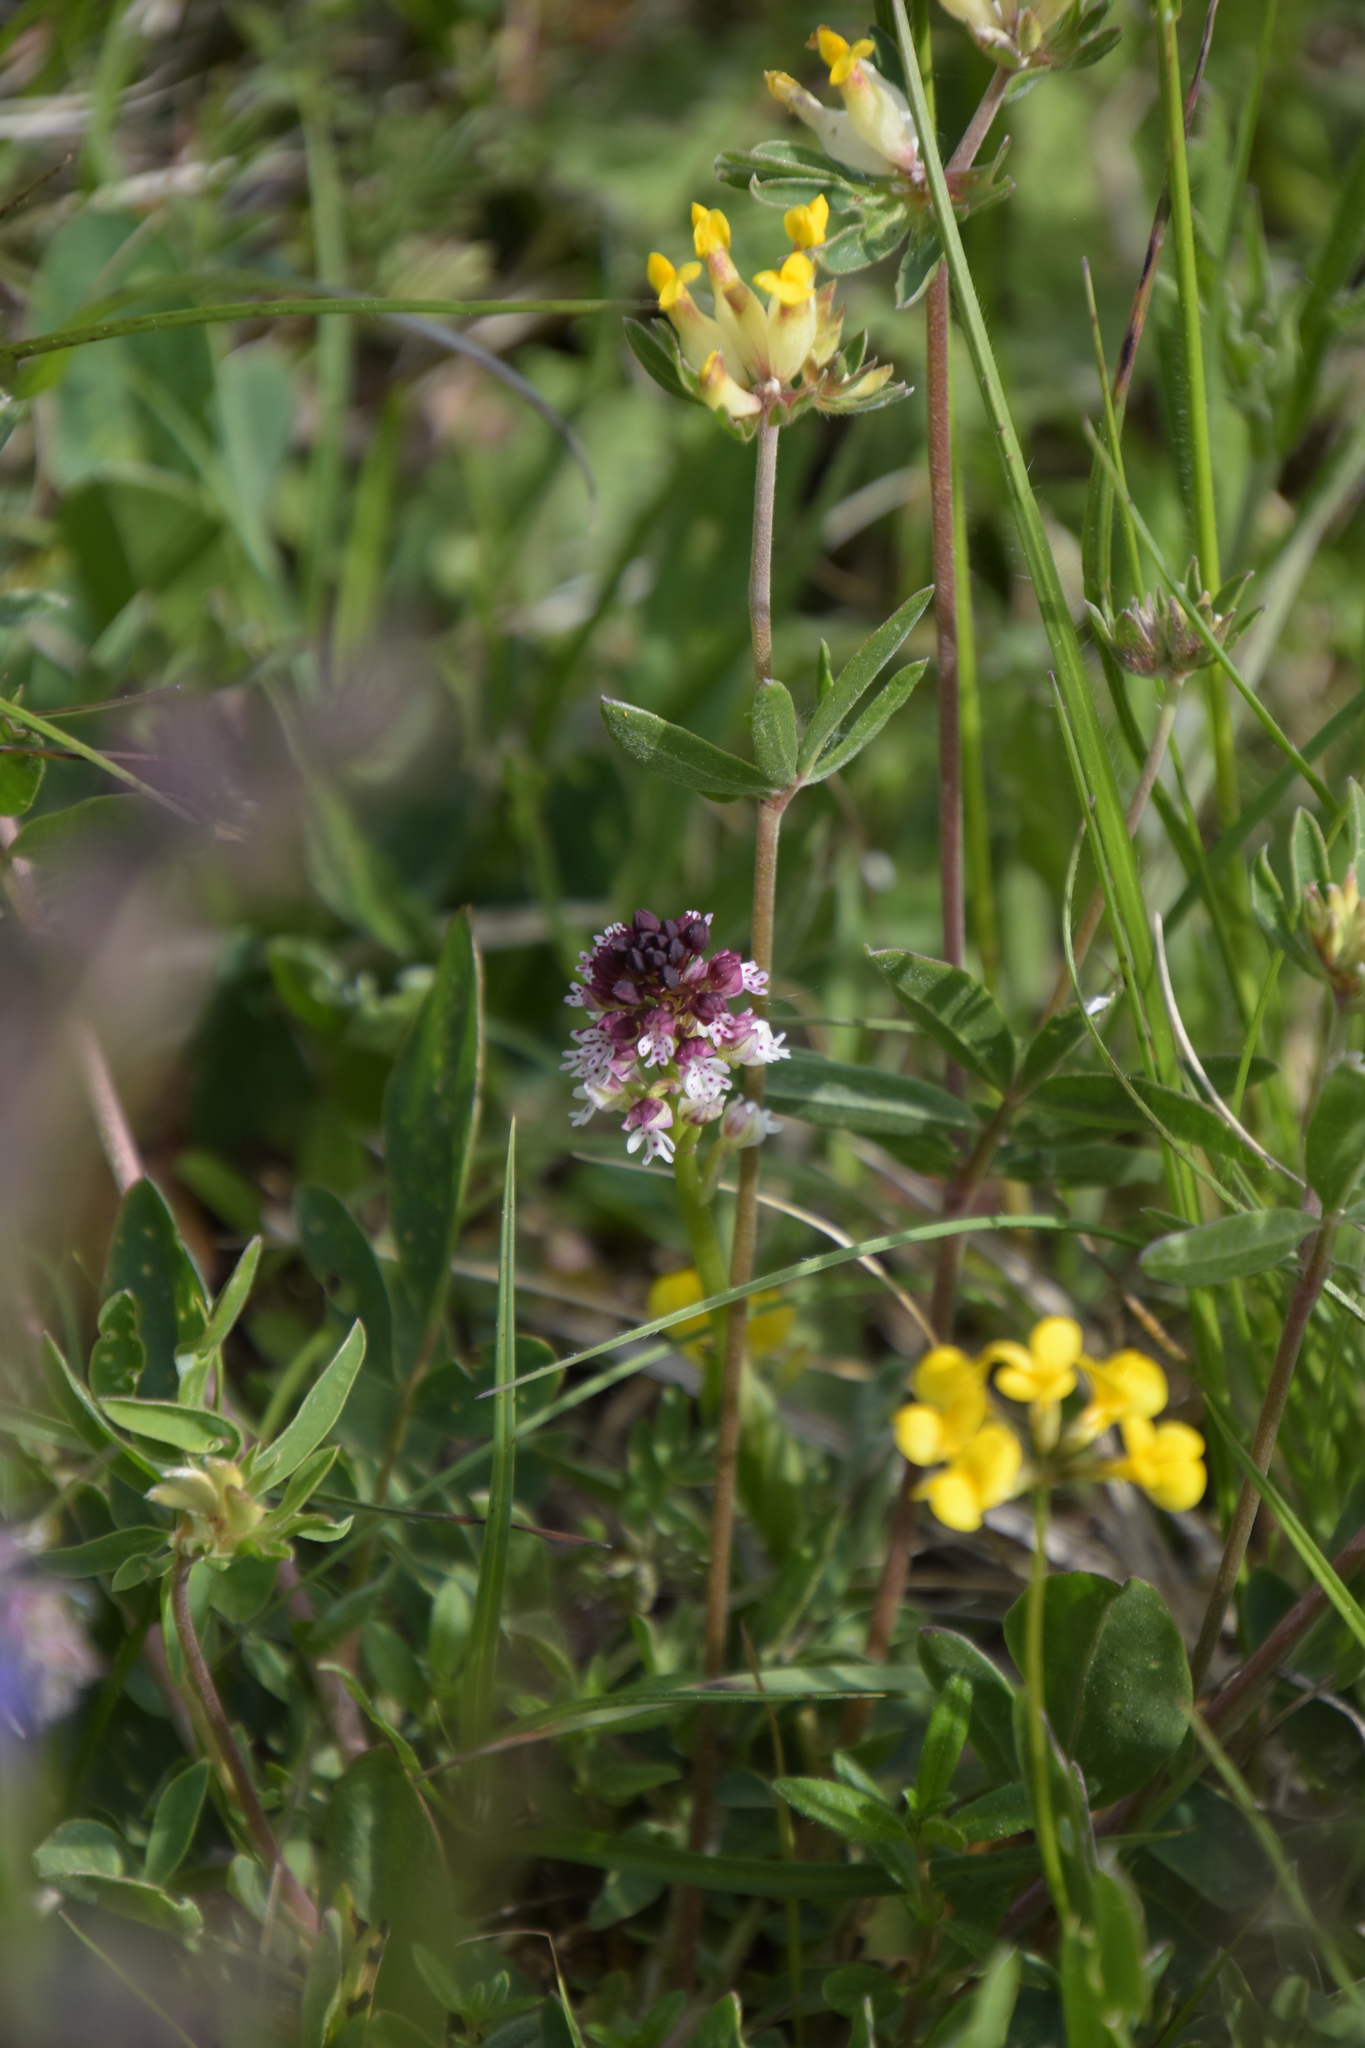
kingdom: Plantae
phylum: Tracheophyta
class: Liliopsida
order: Asparagales
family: Orchidaceae
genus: Neotinea
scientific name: Neotinea ustulata
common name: Burnt orchid
